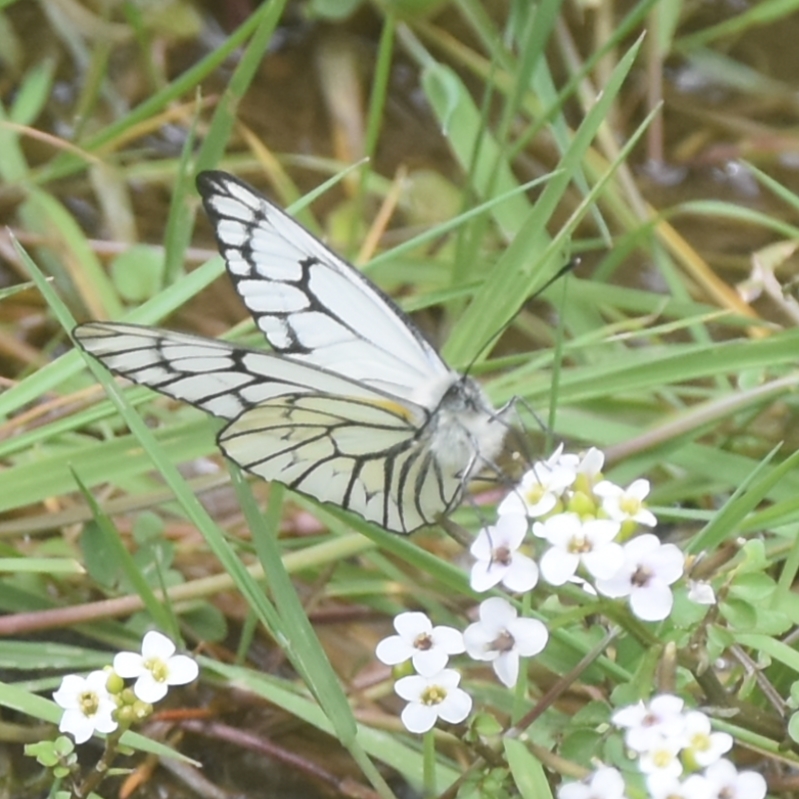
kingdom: Animalia
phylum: Arthropoda
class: Insecta
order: Lepidoptera
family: Pieridae
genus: Aporia
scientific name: Aporia leucodice
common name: Himalayan blackvein
